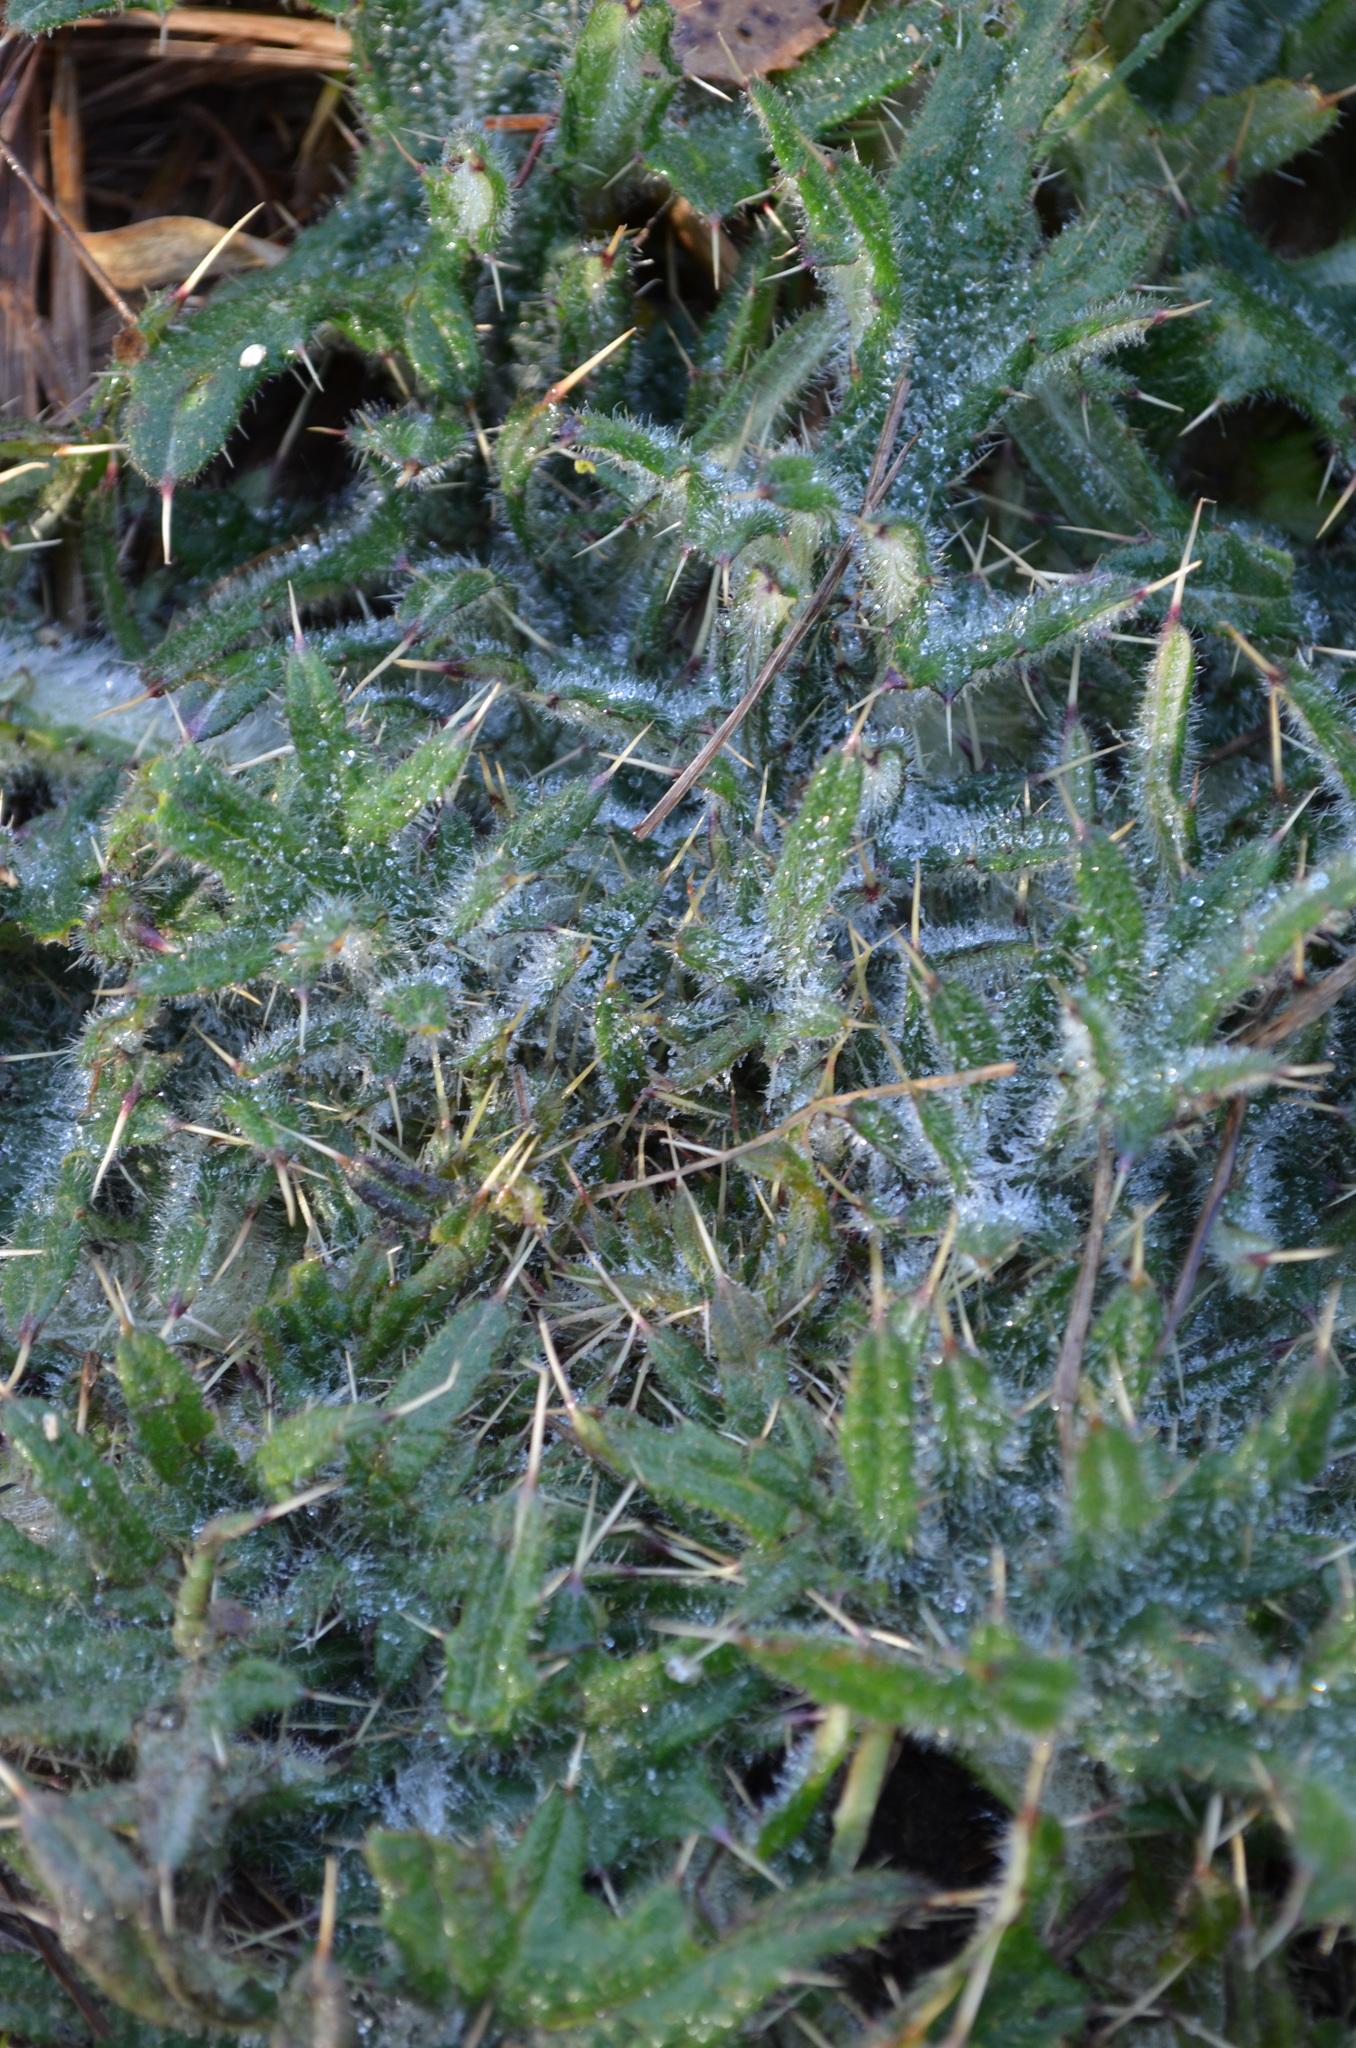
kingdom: Plantae
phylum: Tracheophyta
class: Magnoliopsida
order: Asterales
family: Asteraceae
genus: Cirsium
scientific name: Cirsium vulgare
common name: Bull thistle
